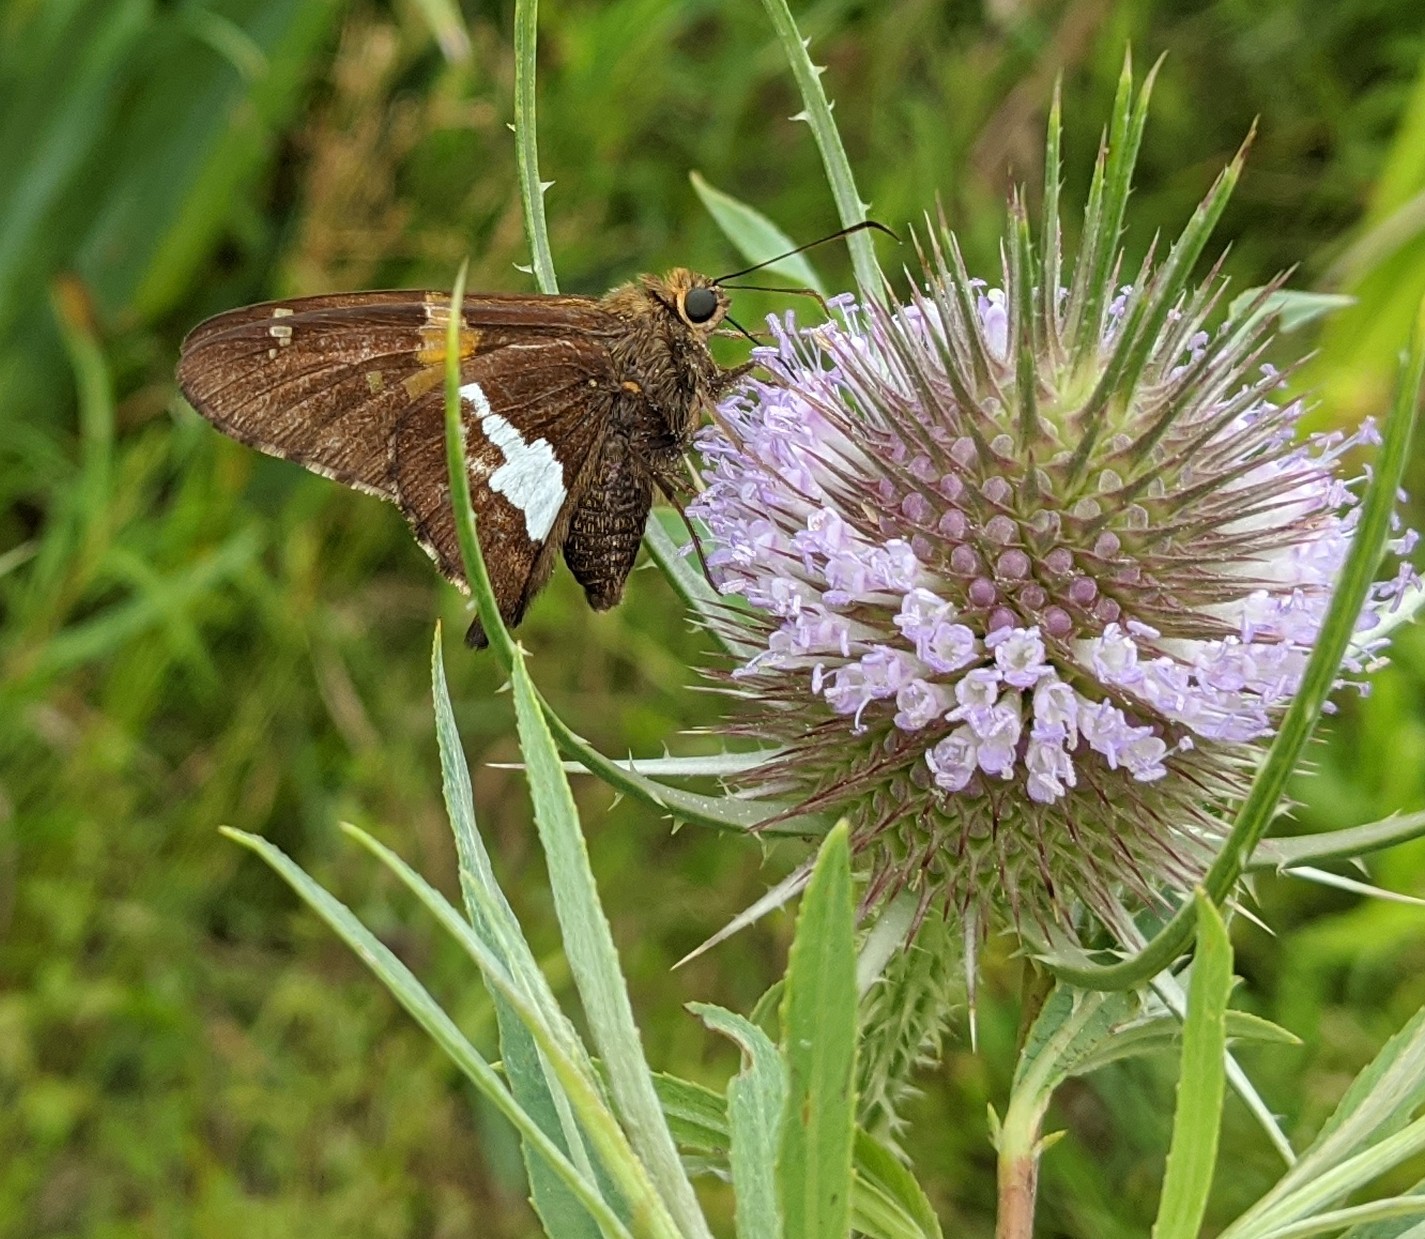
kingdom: Animalia
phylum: Arthropoda
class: Insecta
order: Lepidoptera
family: Hesperiidae
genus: Epargyreus
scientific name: Epargyreus clarus
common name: Silver-spotted skipper
